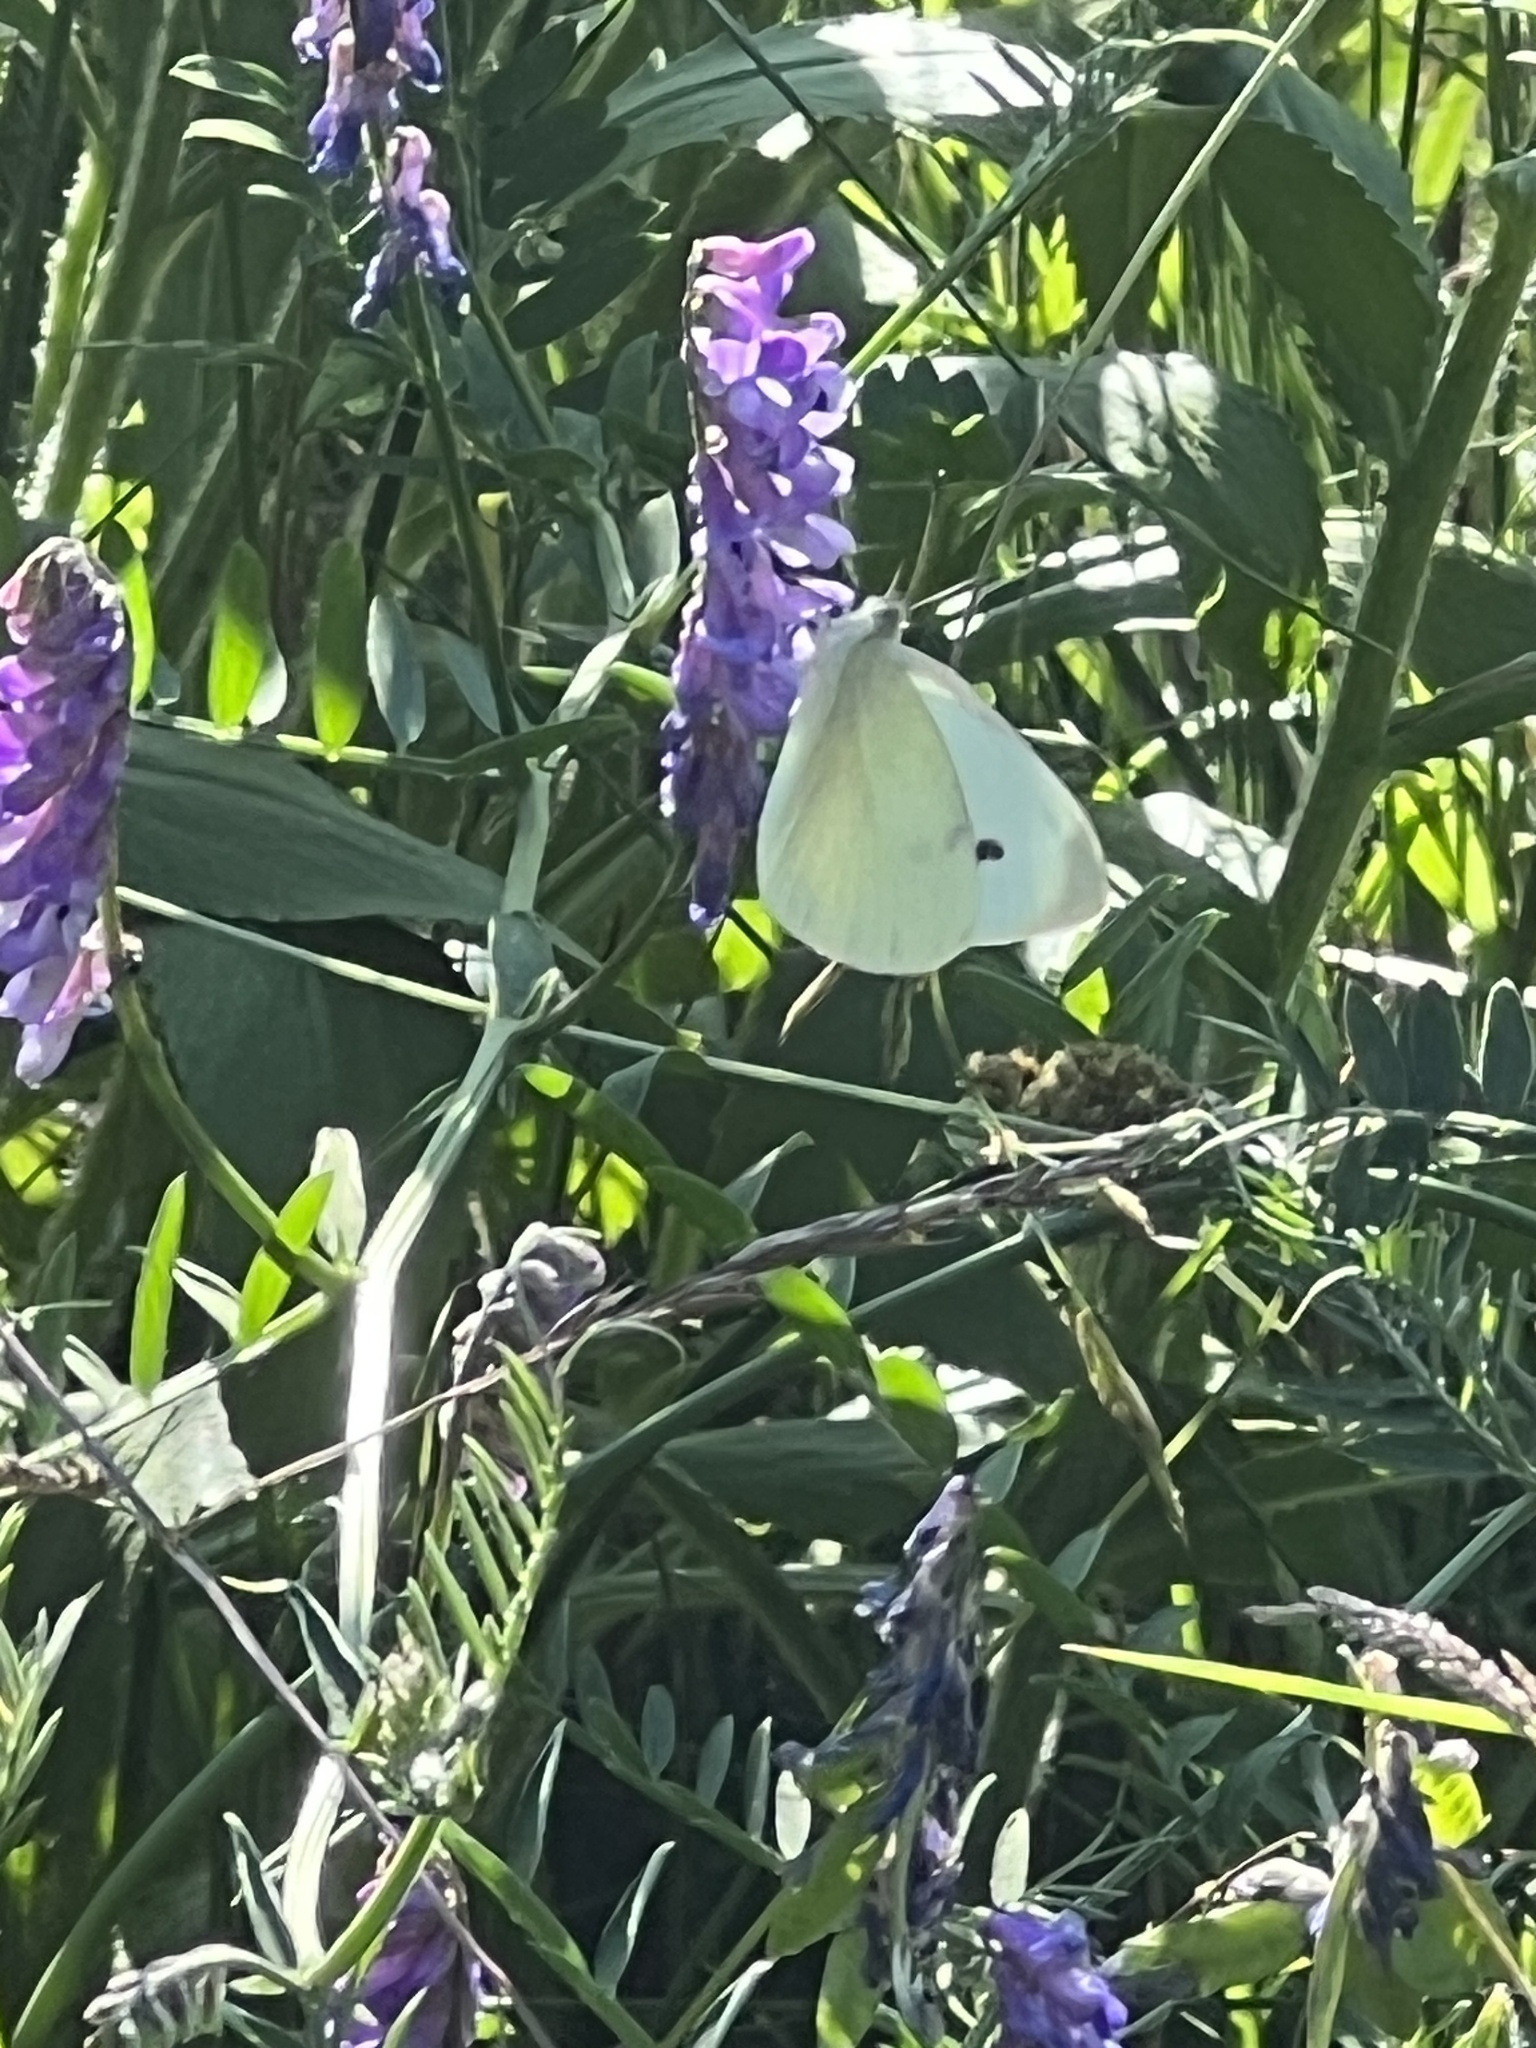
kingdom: Animalia
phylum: Arthropoda
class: Insecta
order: Lepidoptera
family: Pieridae
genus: Pieris
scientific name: Pieris rapae
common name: Small white
